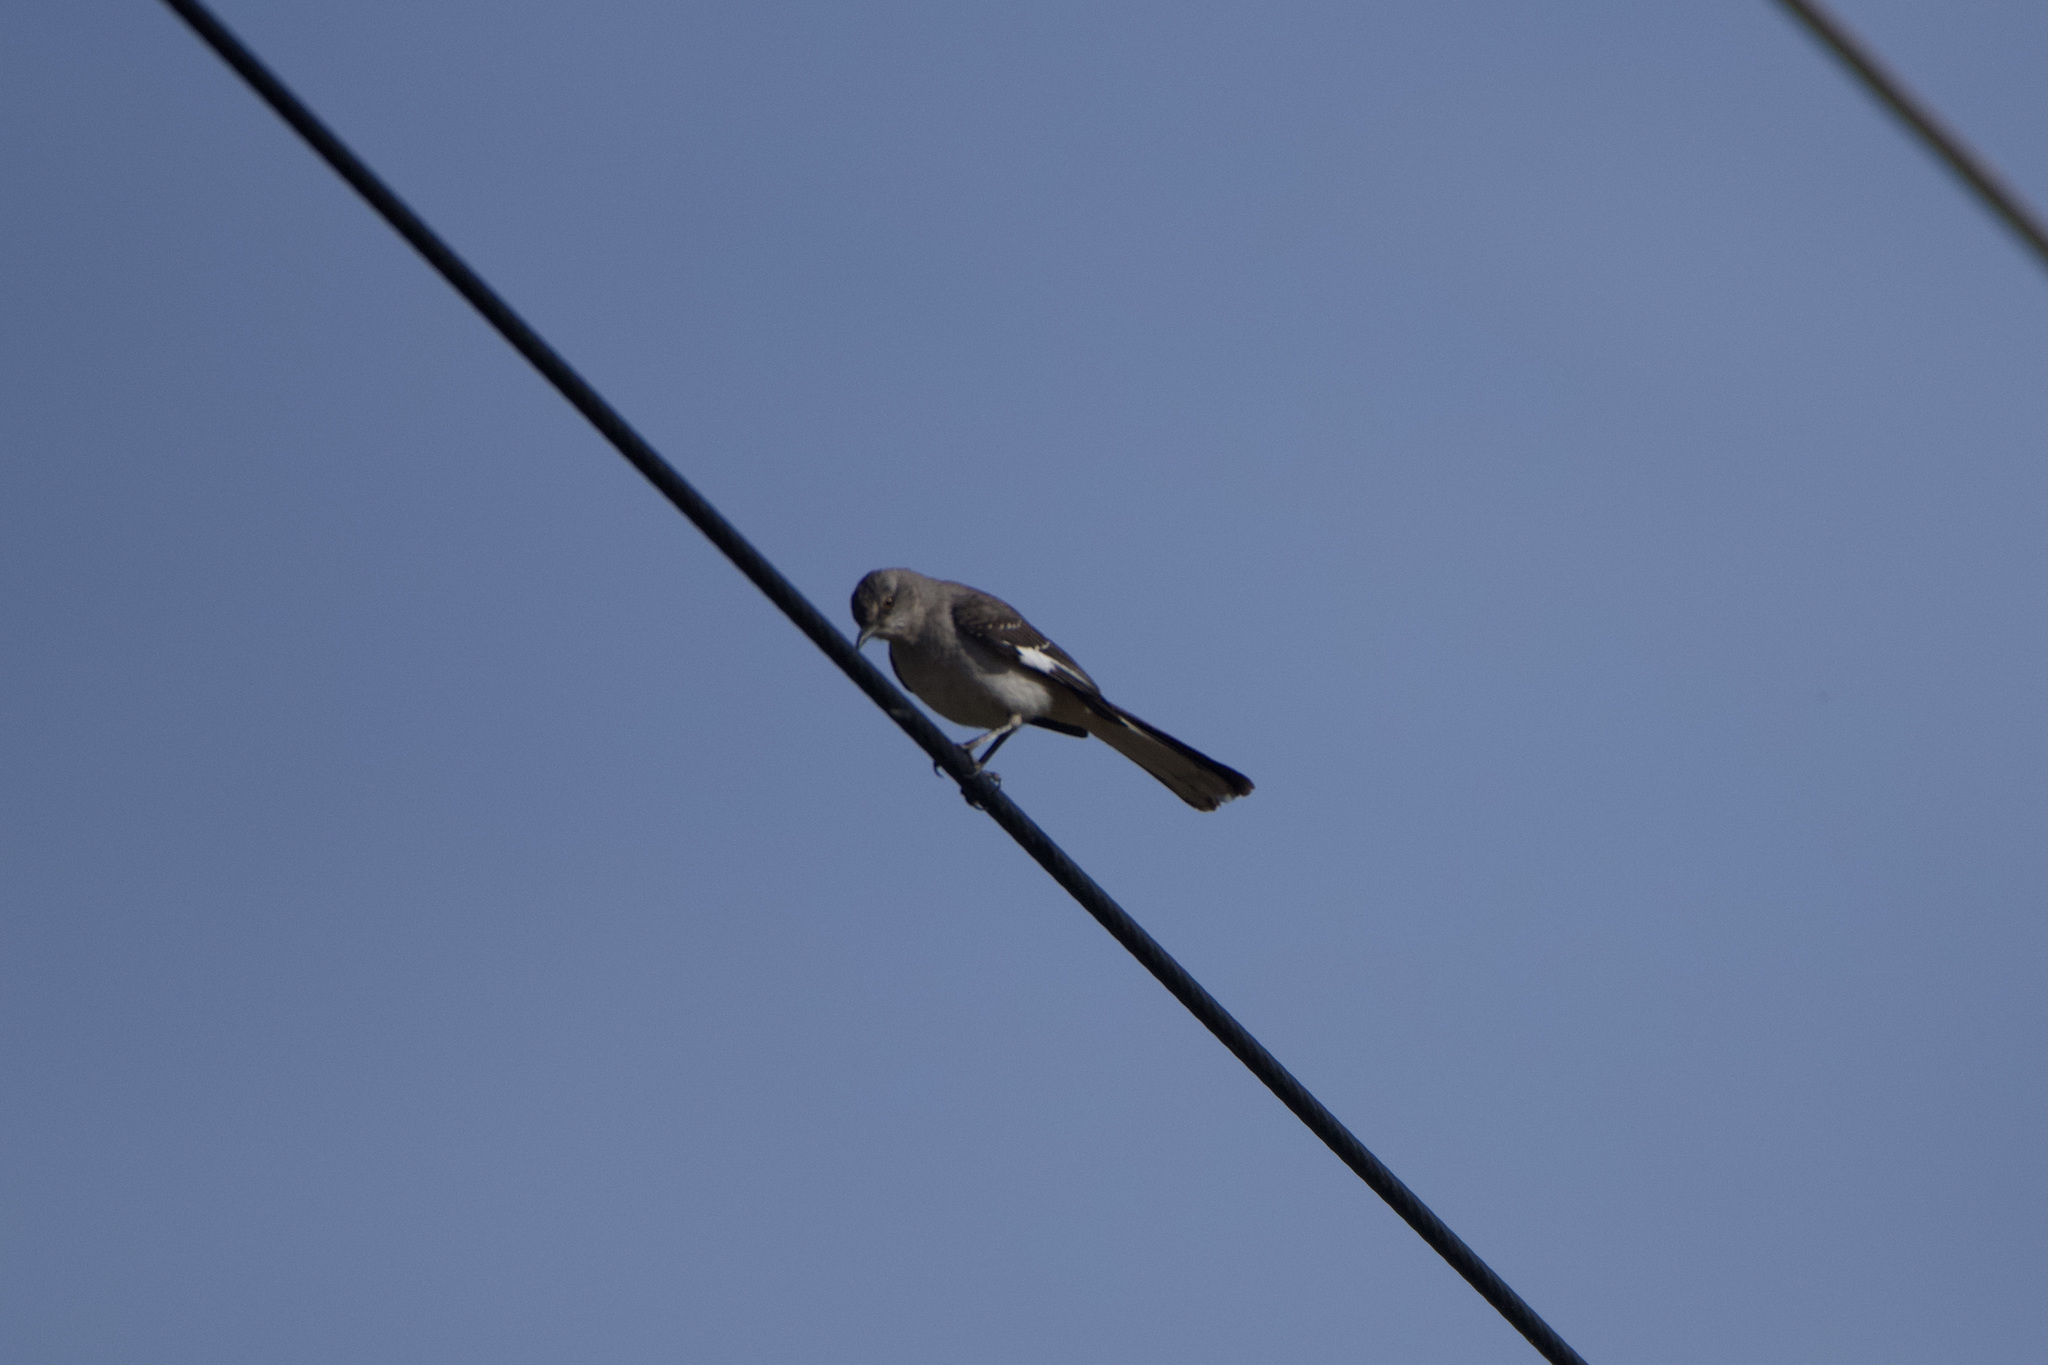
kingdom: Animalia
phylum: Chordata
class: Aves
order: Passeriformes
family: Mimidae
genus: Mimus
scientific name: Mimus polyglottos
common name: Northern mockingbird
